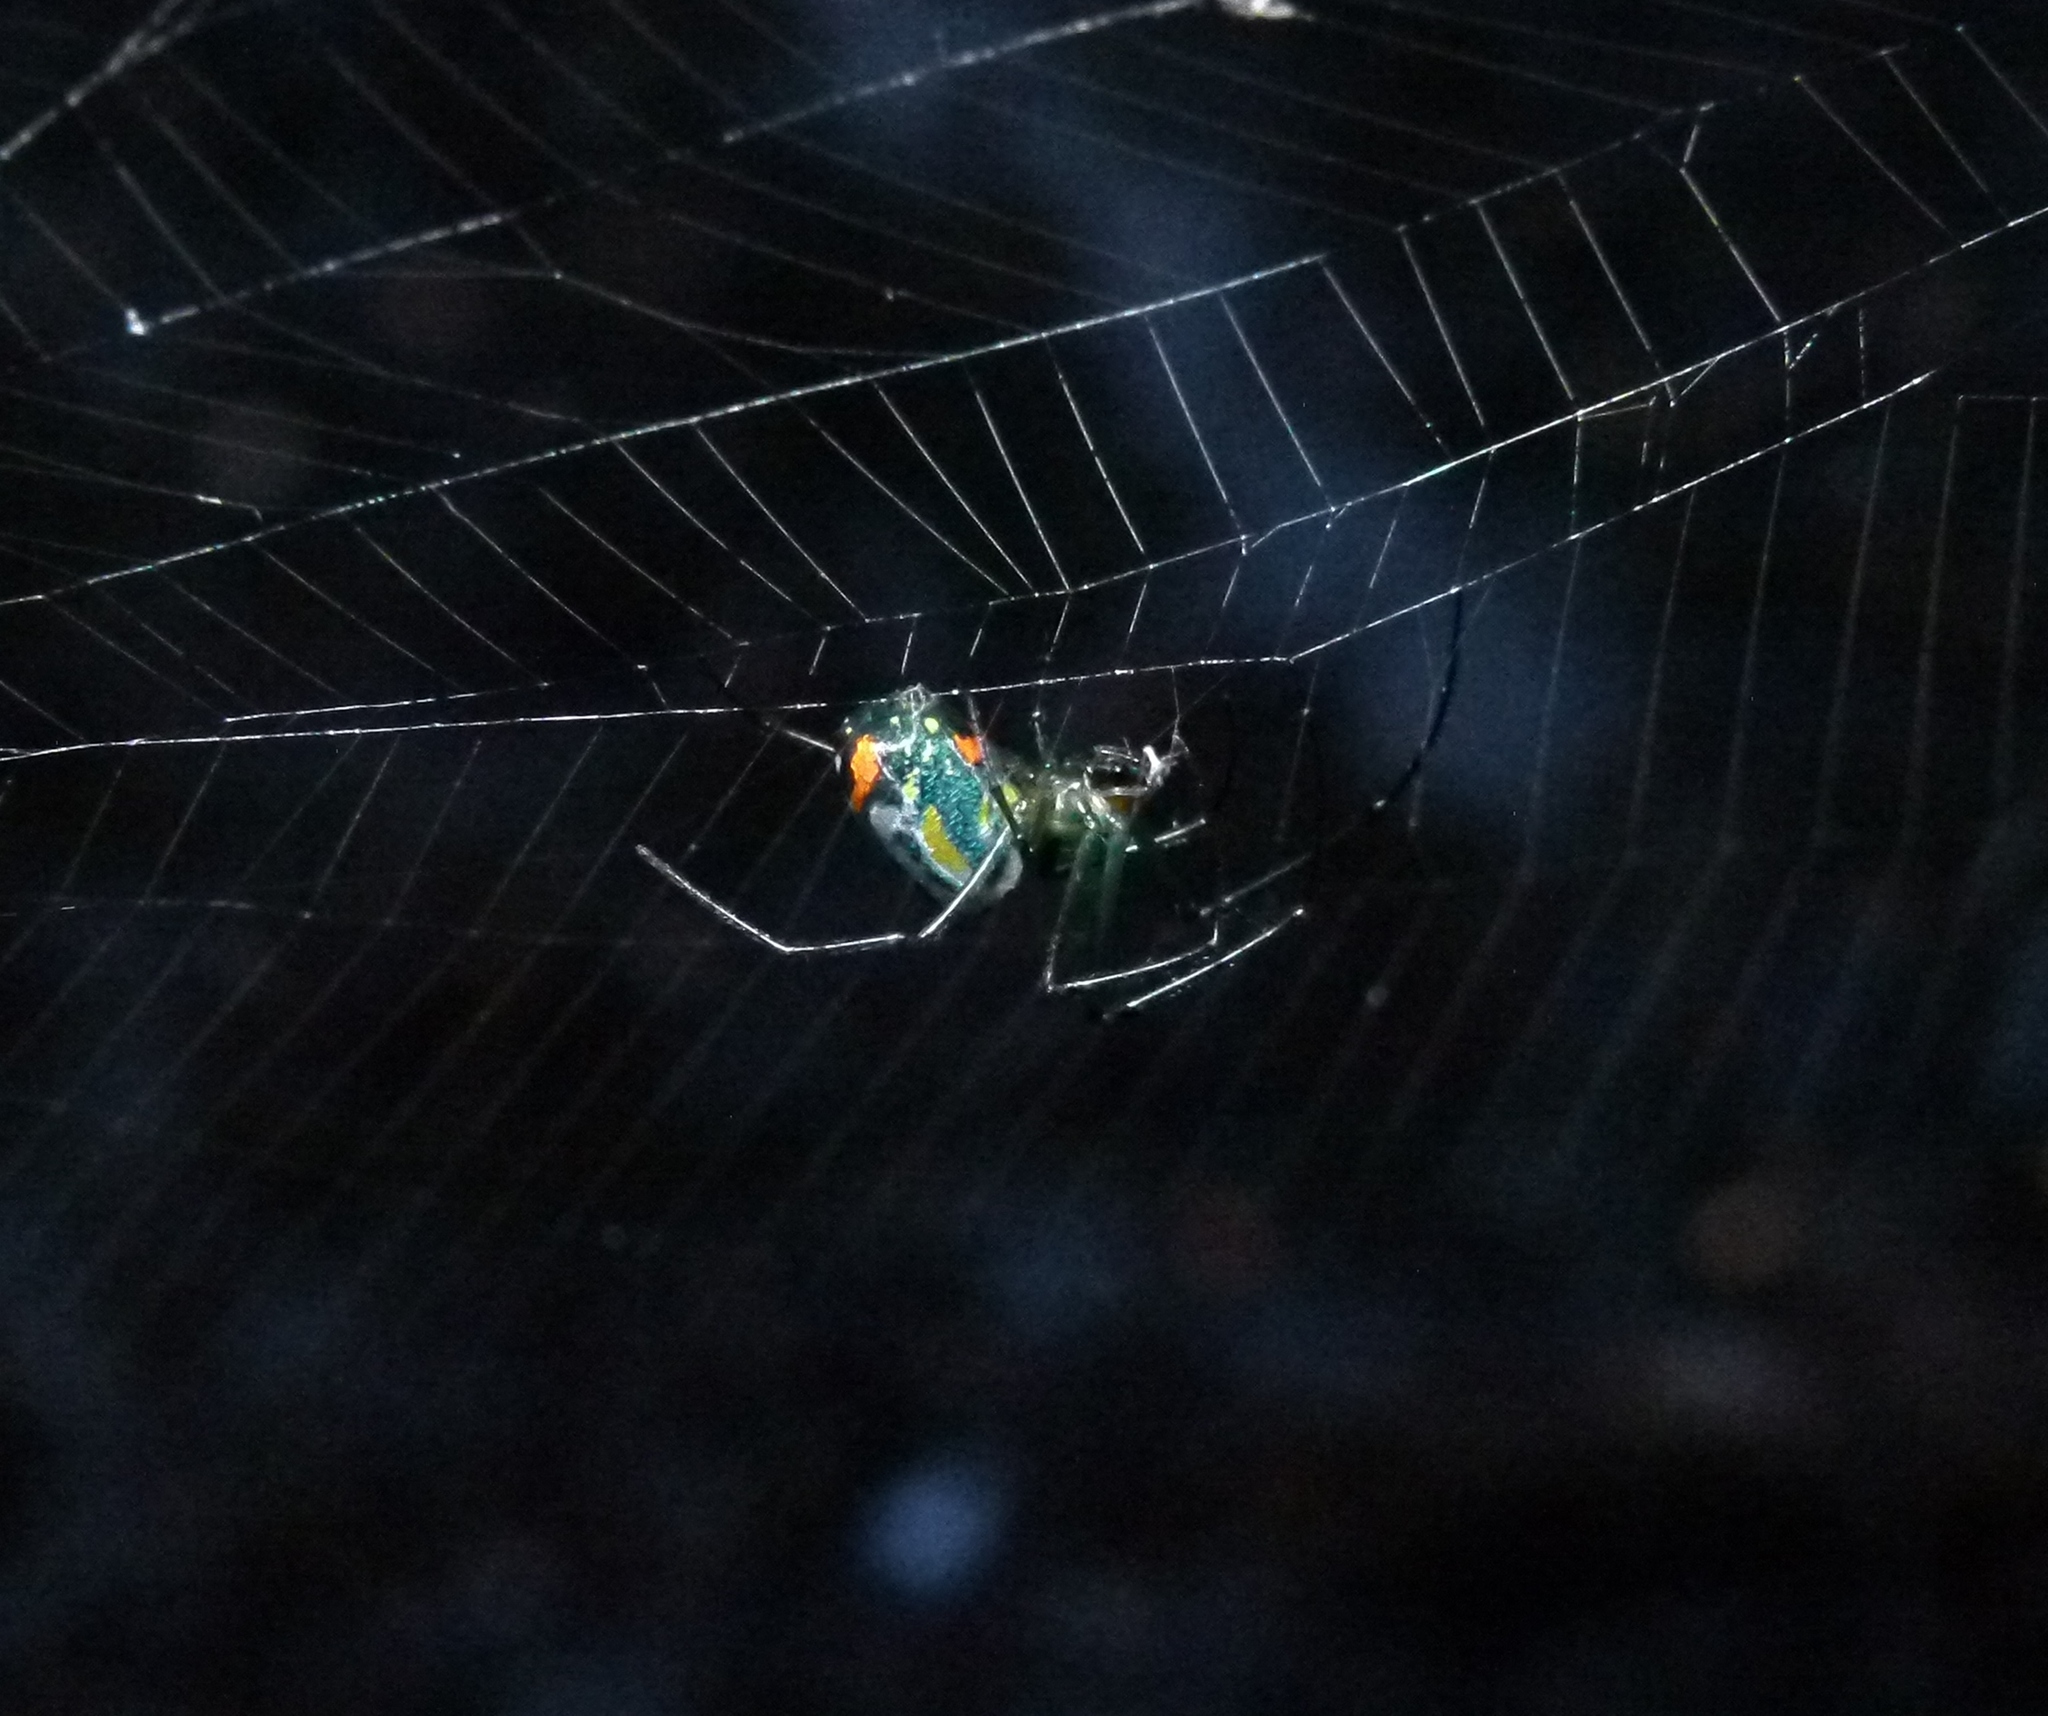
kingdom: Animalia
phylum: Arthropoda
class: Arachnida
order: Araneae
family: Tetragnathidae
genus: Leucauge
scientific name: Leucauge argyrobapta
